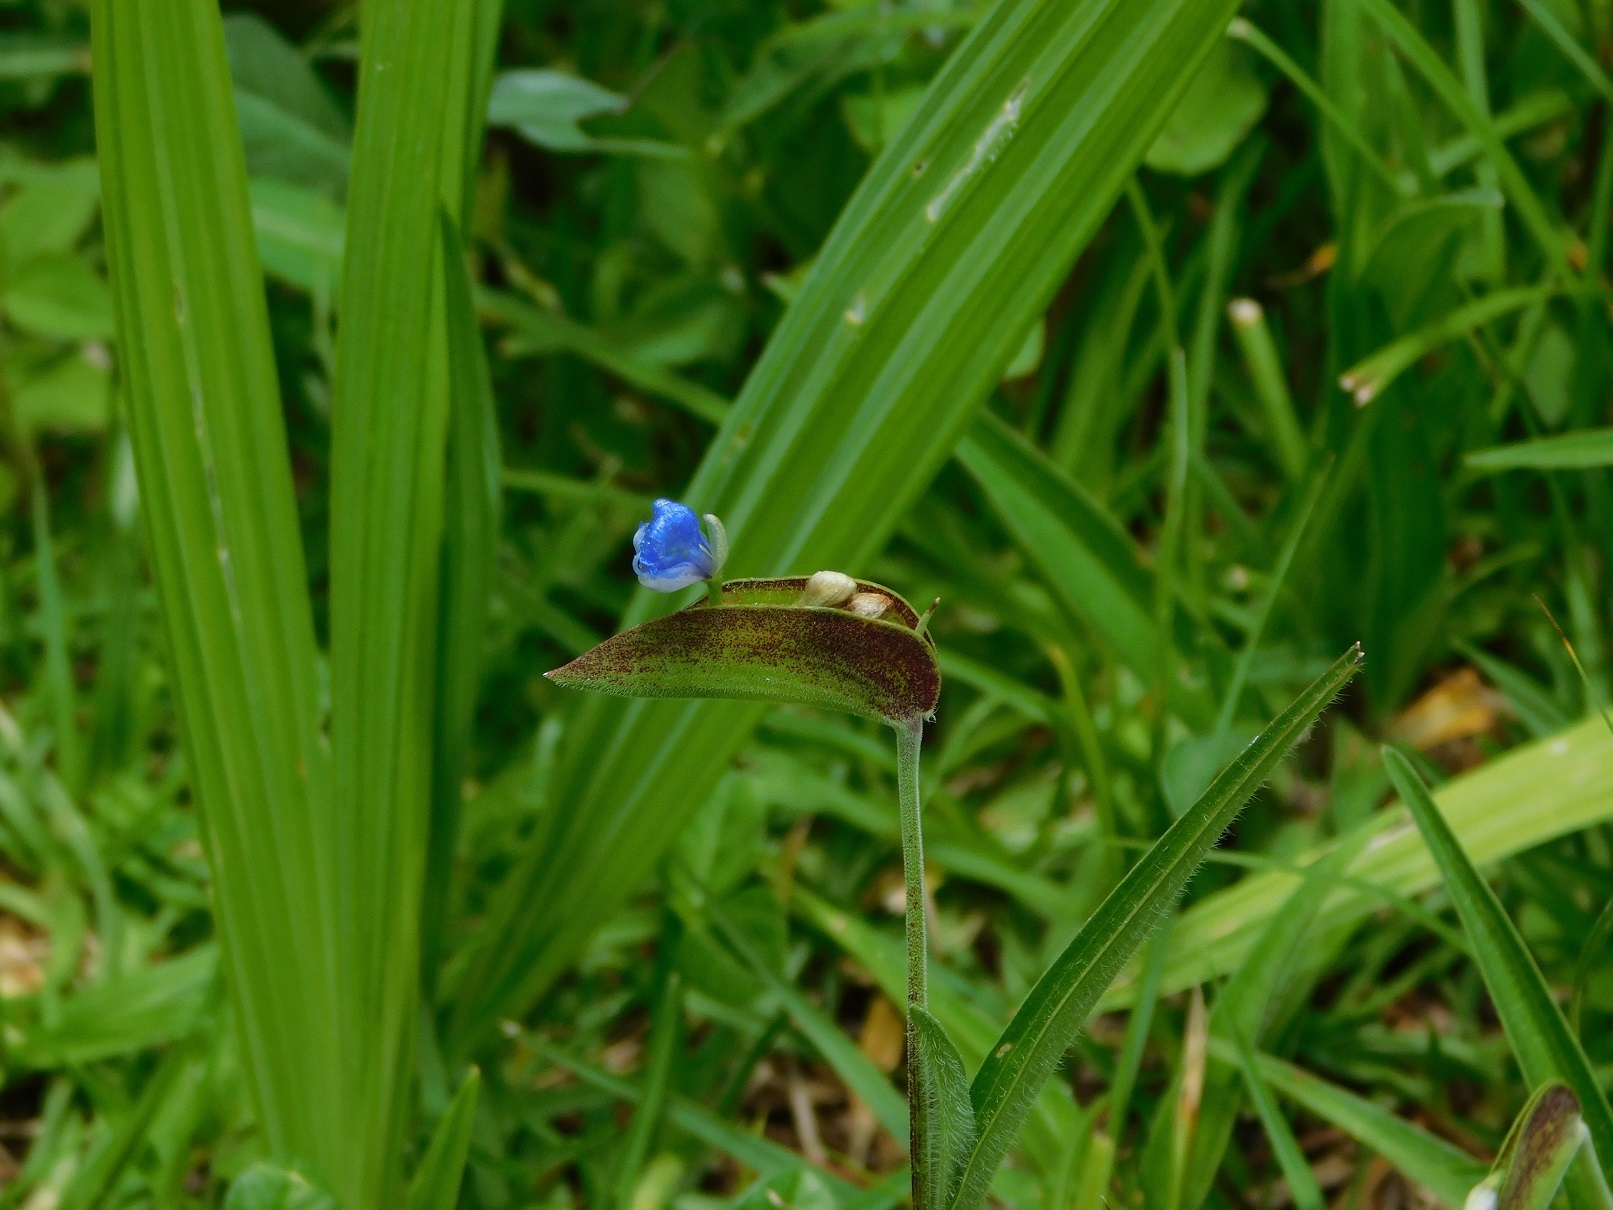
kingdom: Plantae
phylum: Tracheophyta
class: Liliopsida
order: Commelinales
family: Commelinaceae
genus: Commelina
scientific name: Commelina tuberosa
